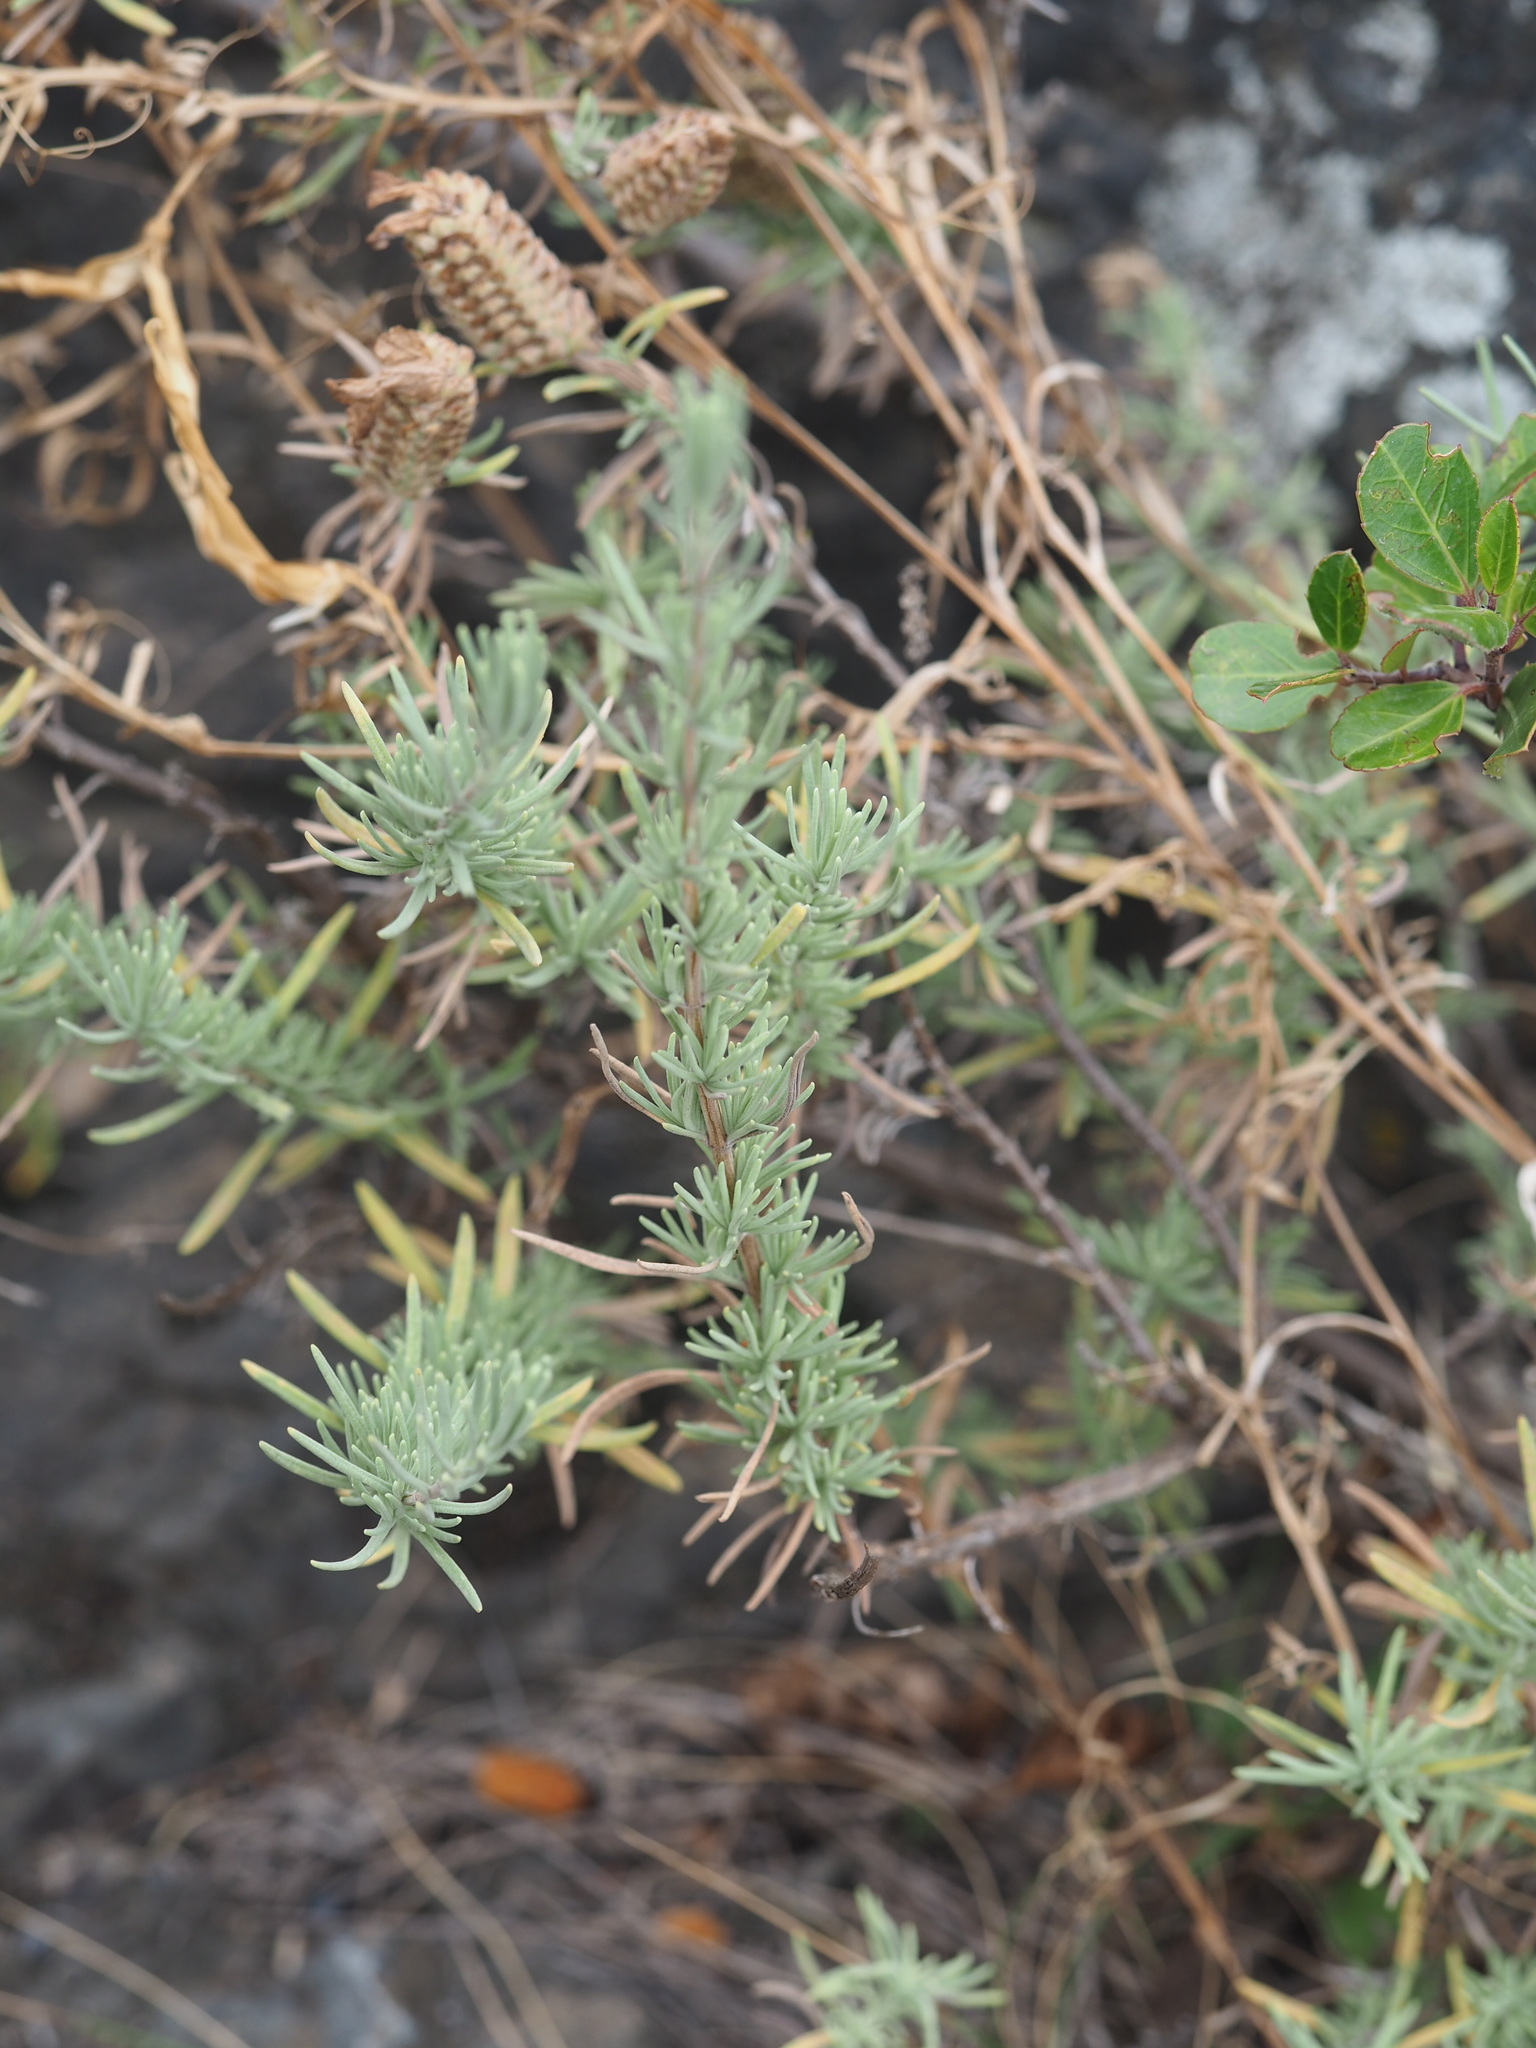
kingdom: Plantae
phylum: Tracheophyta
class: Magnoliopsida
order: Lamiales
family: Lamiaceae
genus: Lavandula
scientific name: Lavandula stoechas
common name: French lavender
